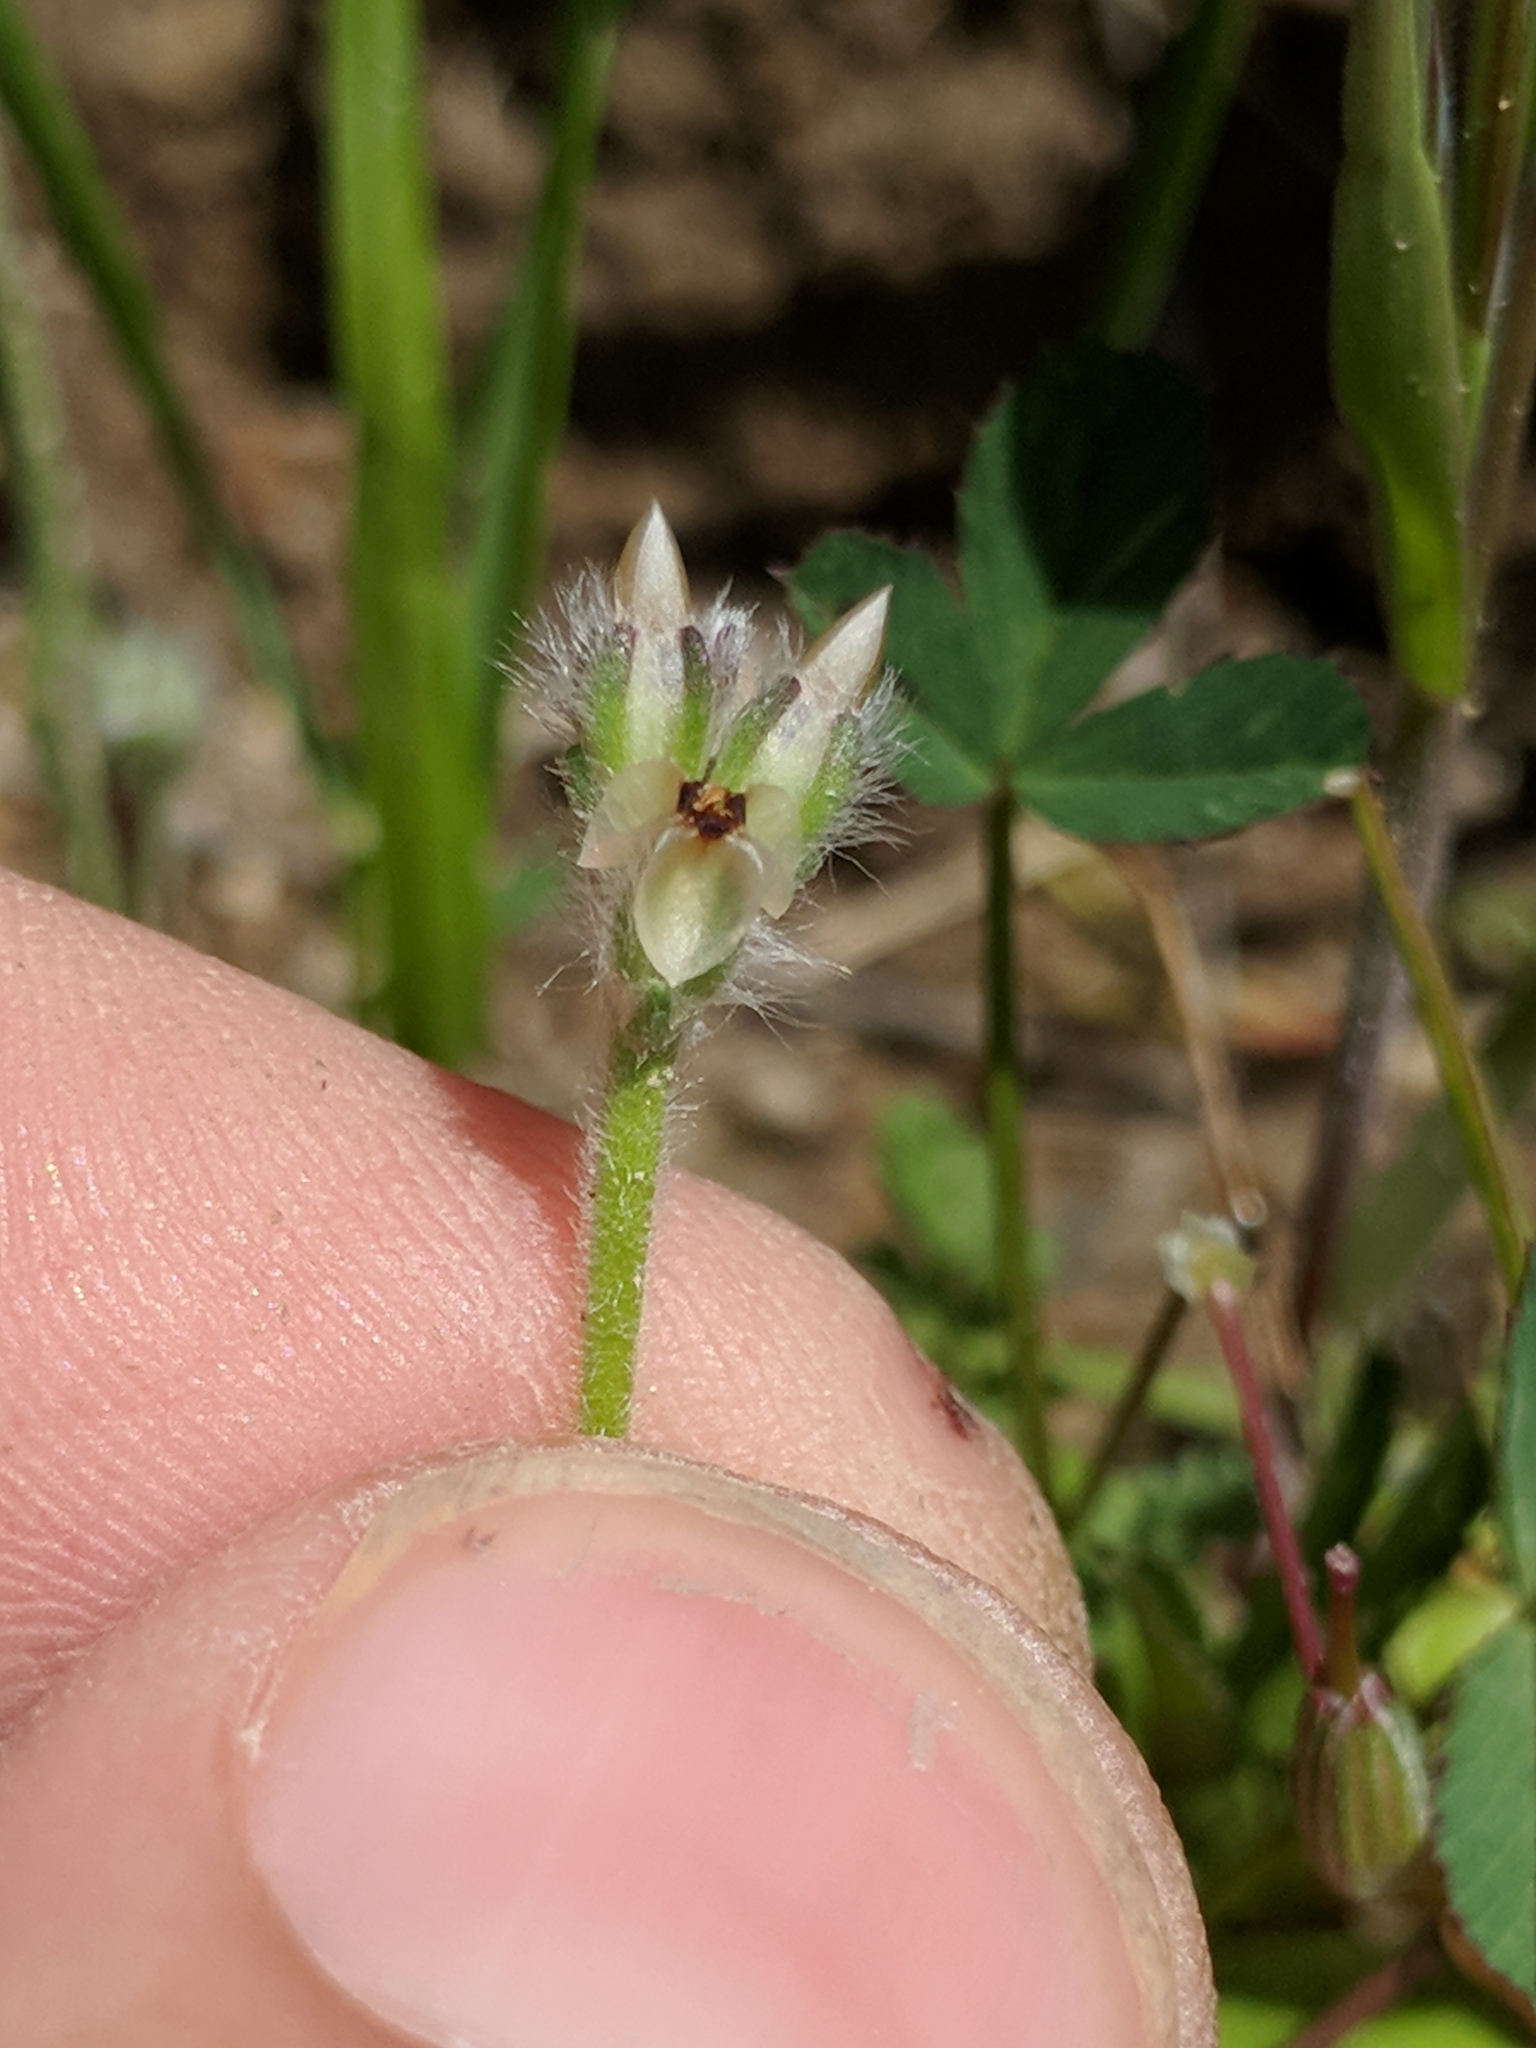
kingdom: Plantae
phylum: Tracheophyta
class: Magnoliopsida
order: Lamiales
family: Plantaginaceae
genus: Plantago
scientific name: Plantago erecta
